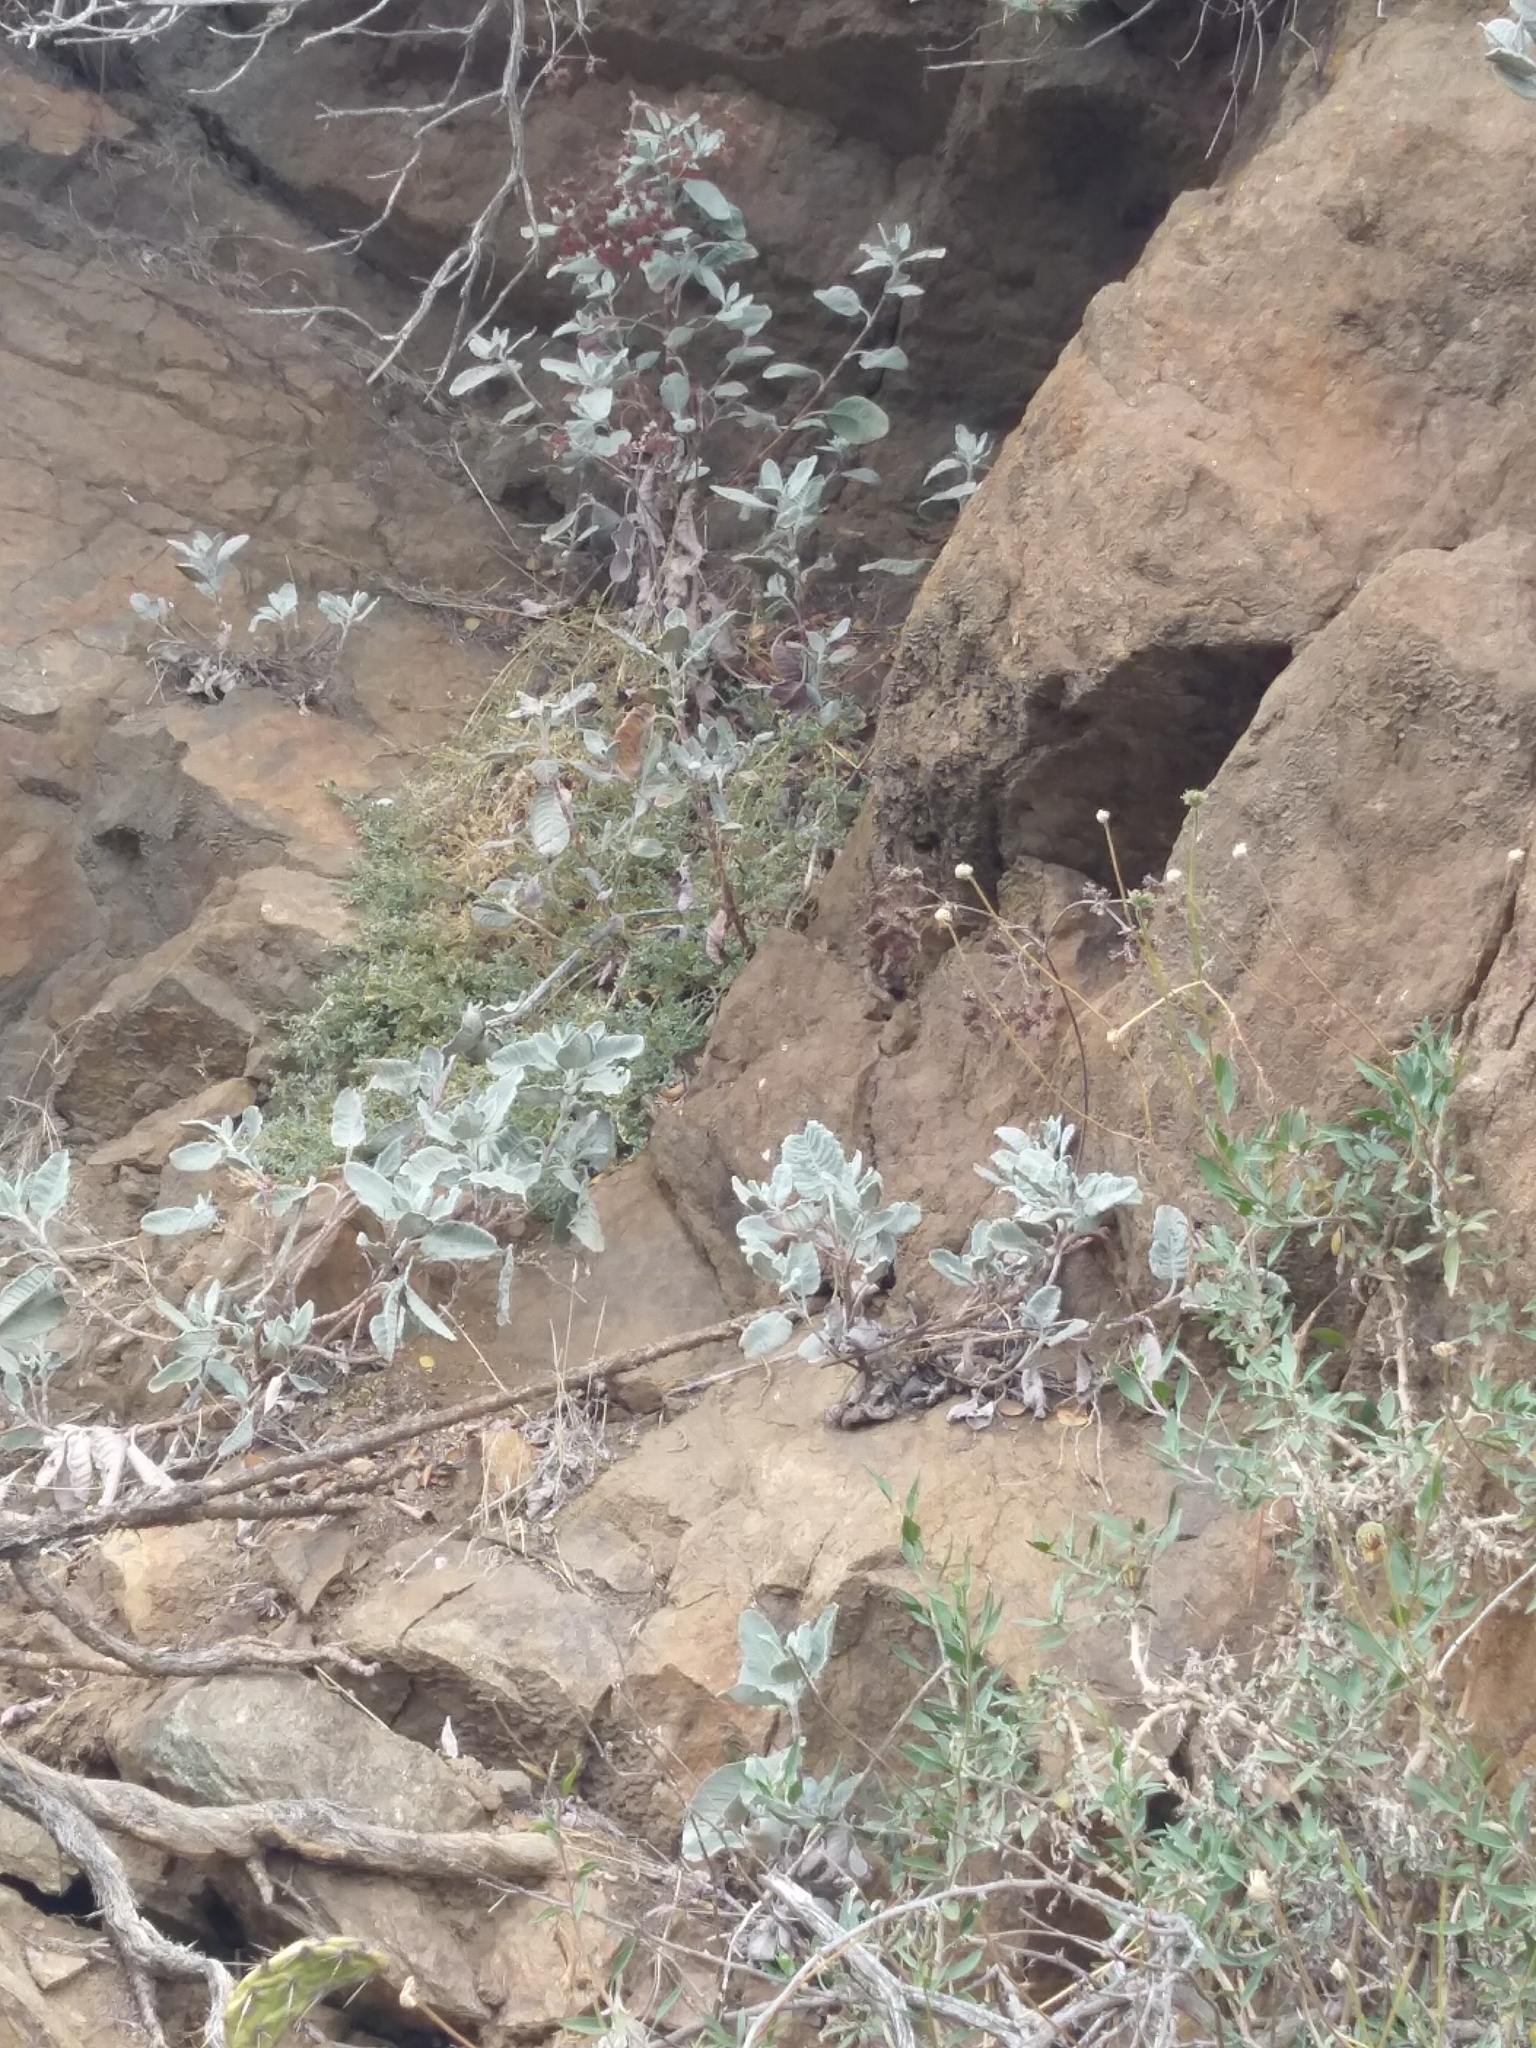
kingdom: Plantae
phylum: Tracheophyta
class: Magnoliopsida
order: Caryophyllales
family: Polygonaceae
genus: Eriogonum
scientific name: Eriogonum giganteum
